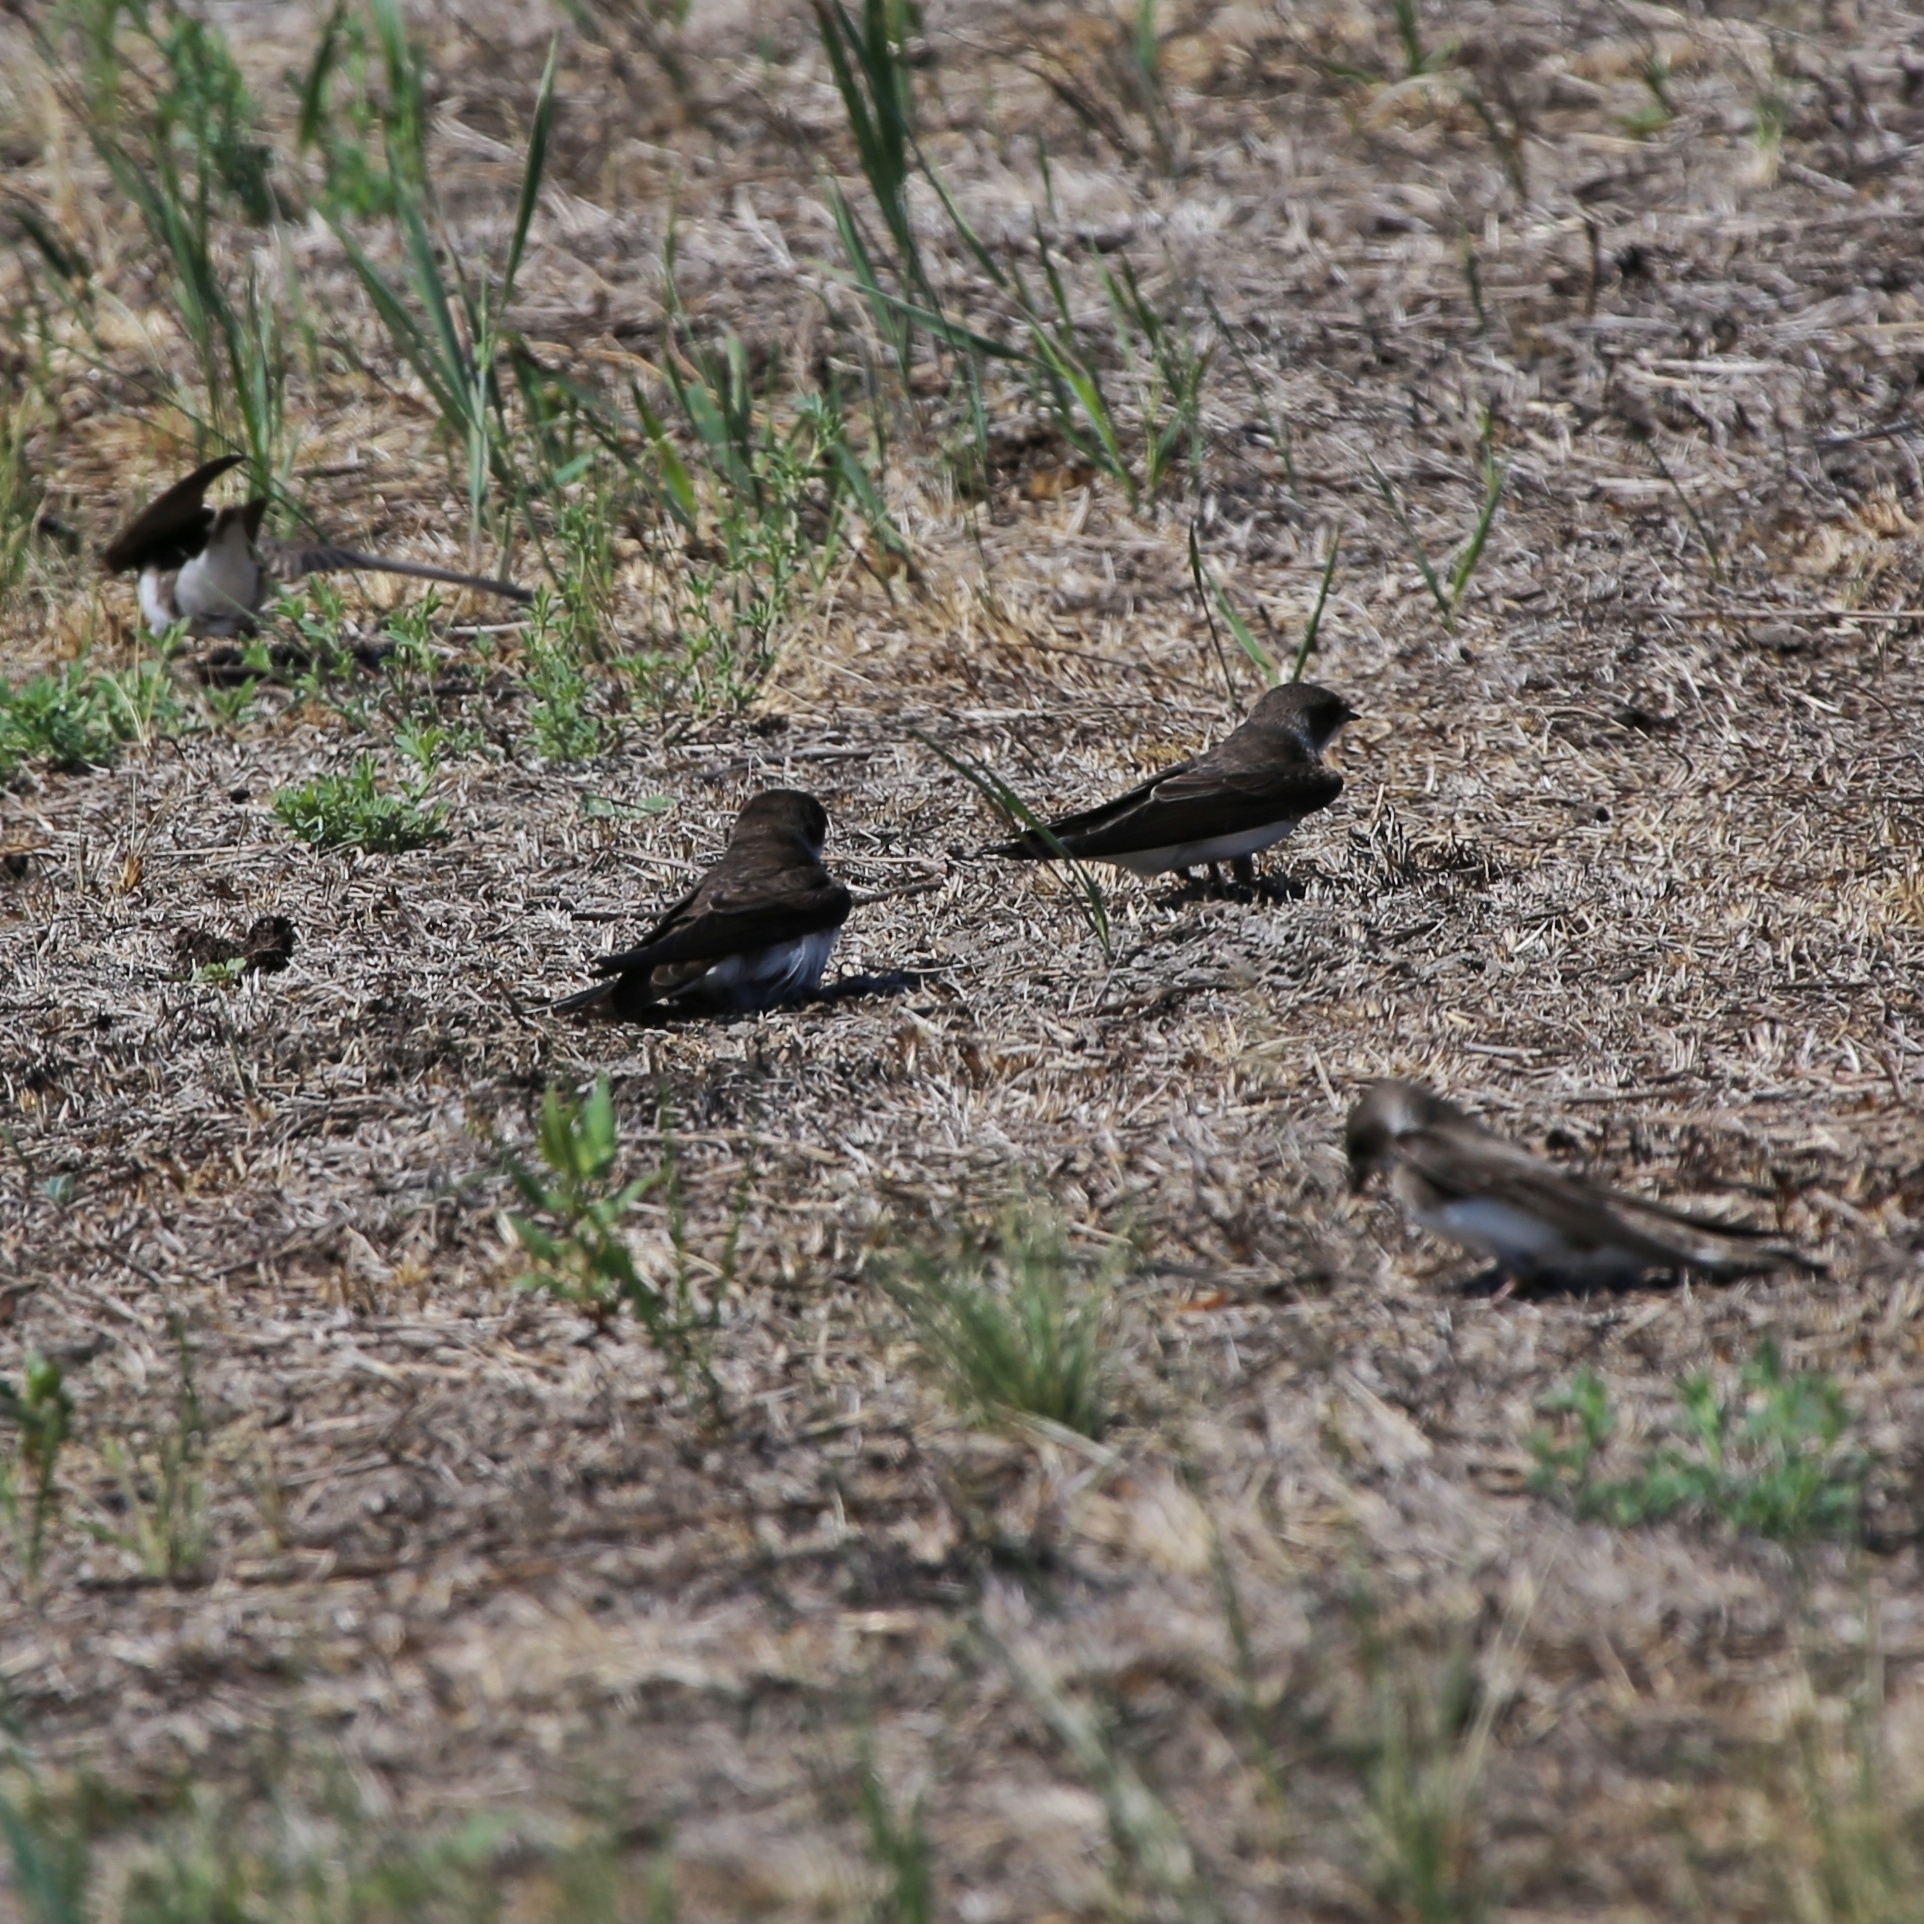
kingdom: Animalia
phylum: Chordata
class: Aves
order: Passeriformes
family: Hirundinidae
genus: Riparia
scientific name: Riparia riparia
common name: Sand martin
